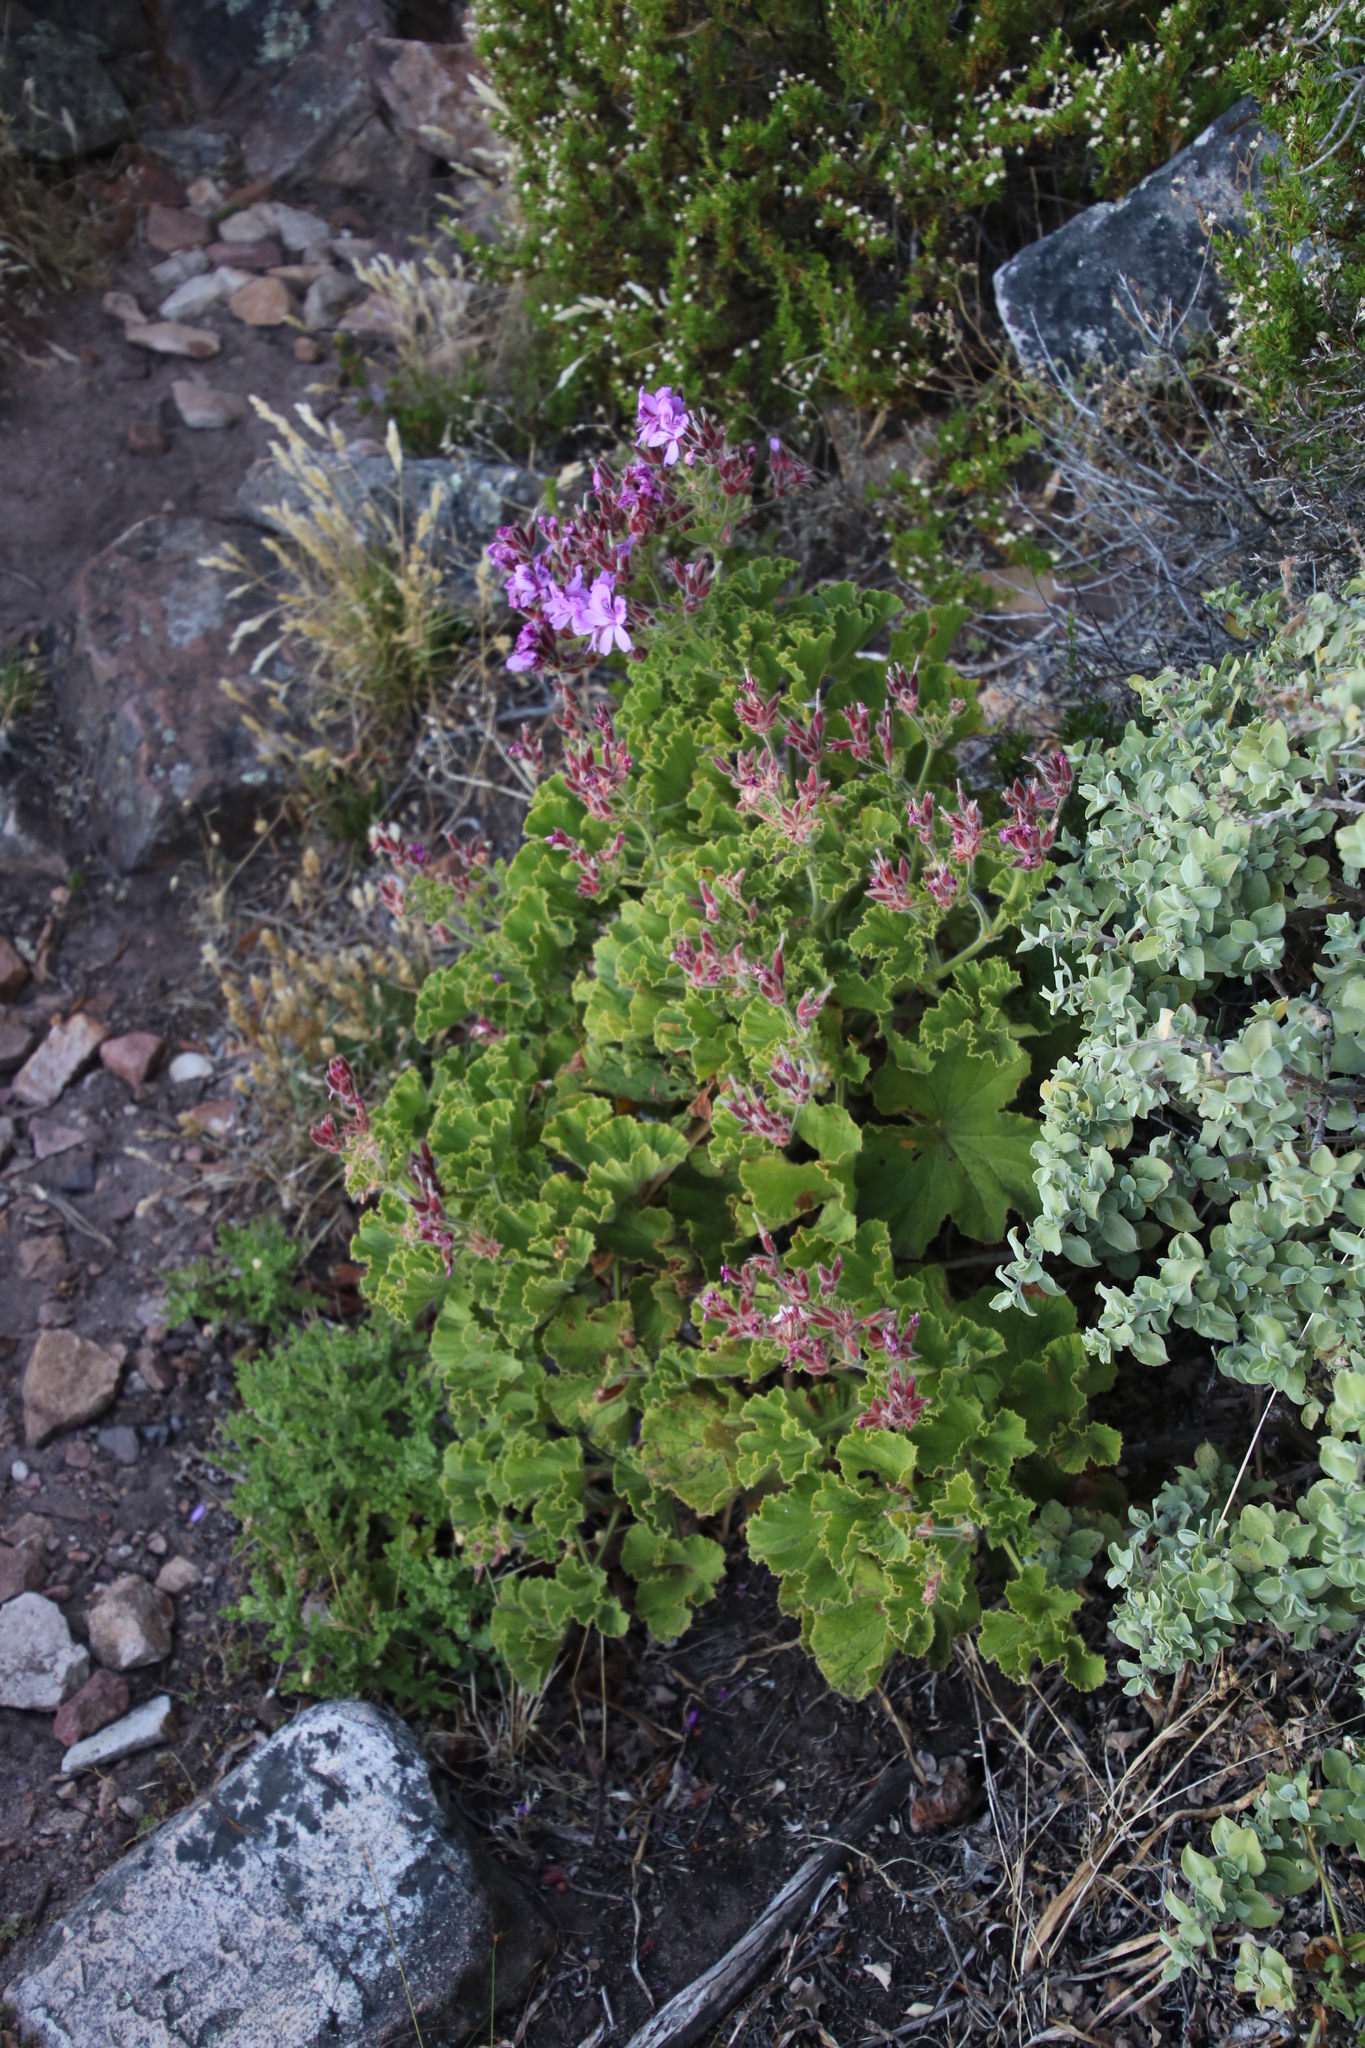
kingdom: Plantae
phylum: Tracheophyta
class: Magnoliopsida
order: Geraniales
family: Geraniaceae
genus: Pelargonium
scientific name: Pelargonium cucullatum
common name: Tree pelargonium
